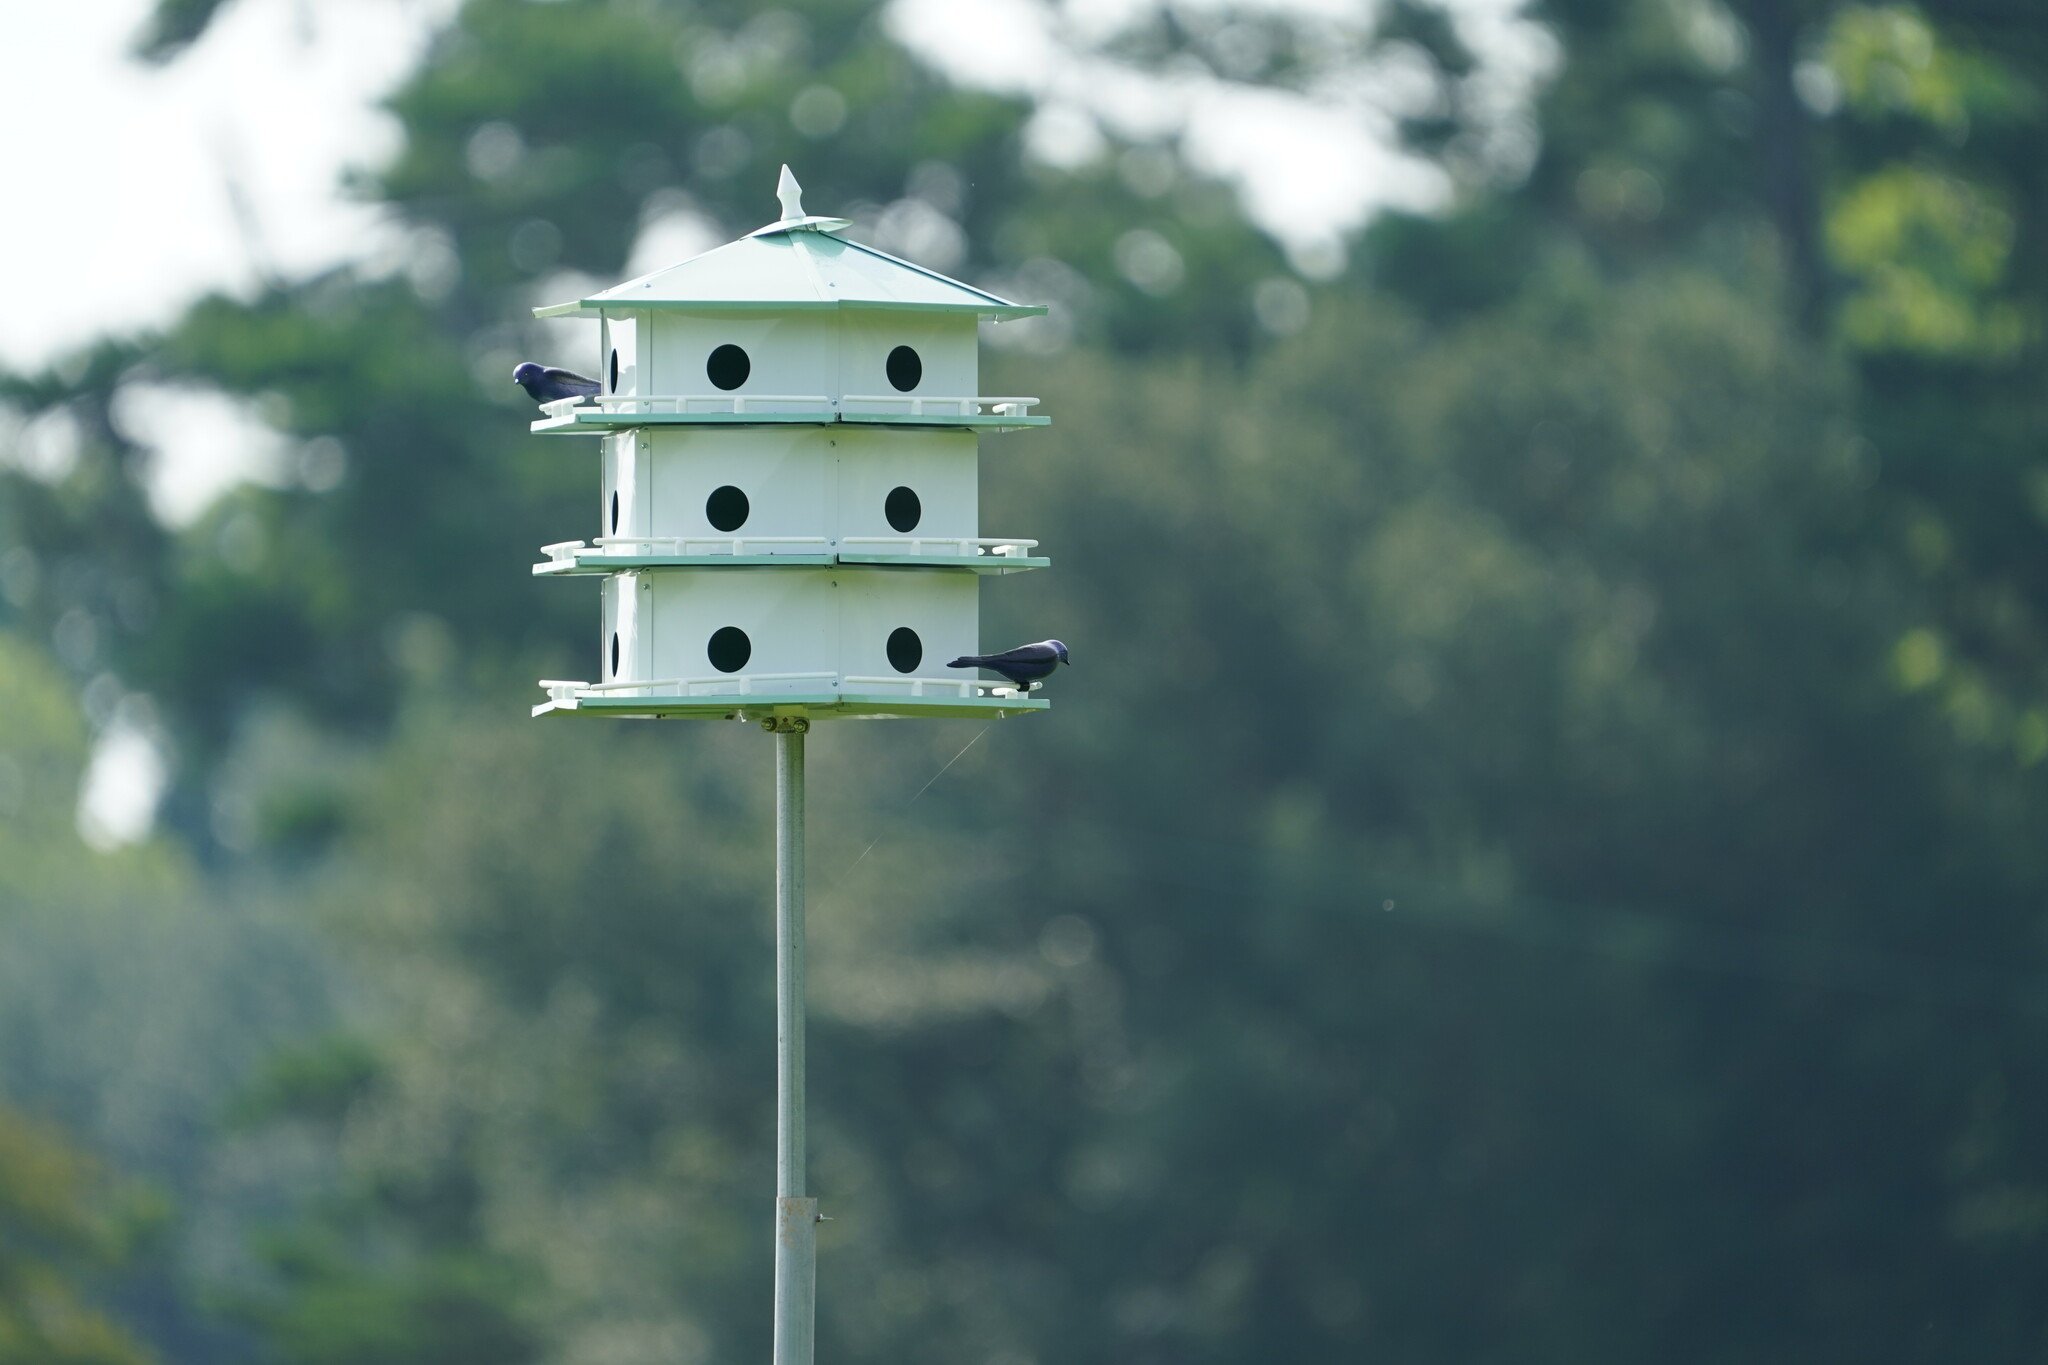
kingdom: Animalia
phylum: Chordata
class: Aves
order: Passeriformes
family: Hirundinidae
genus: Progne
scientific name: Progne subis
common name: Purple martin
